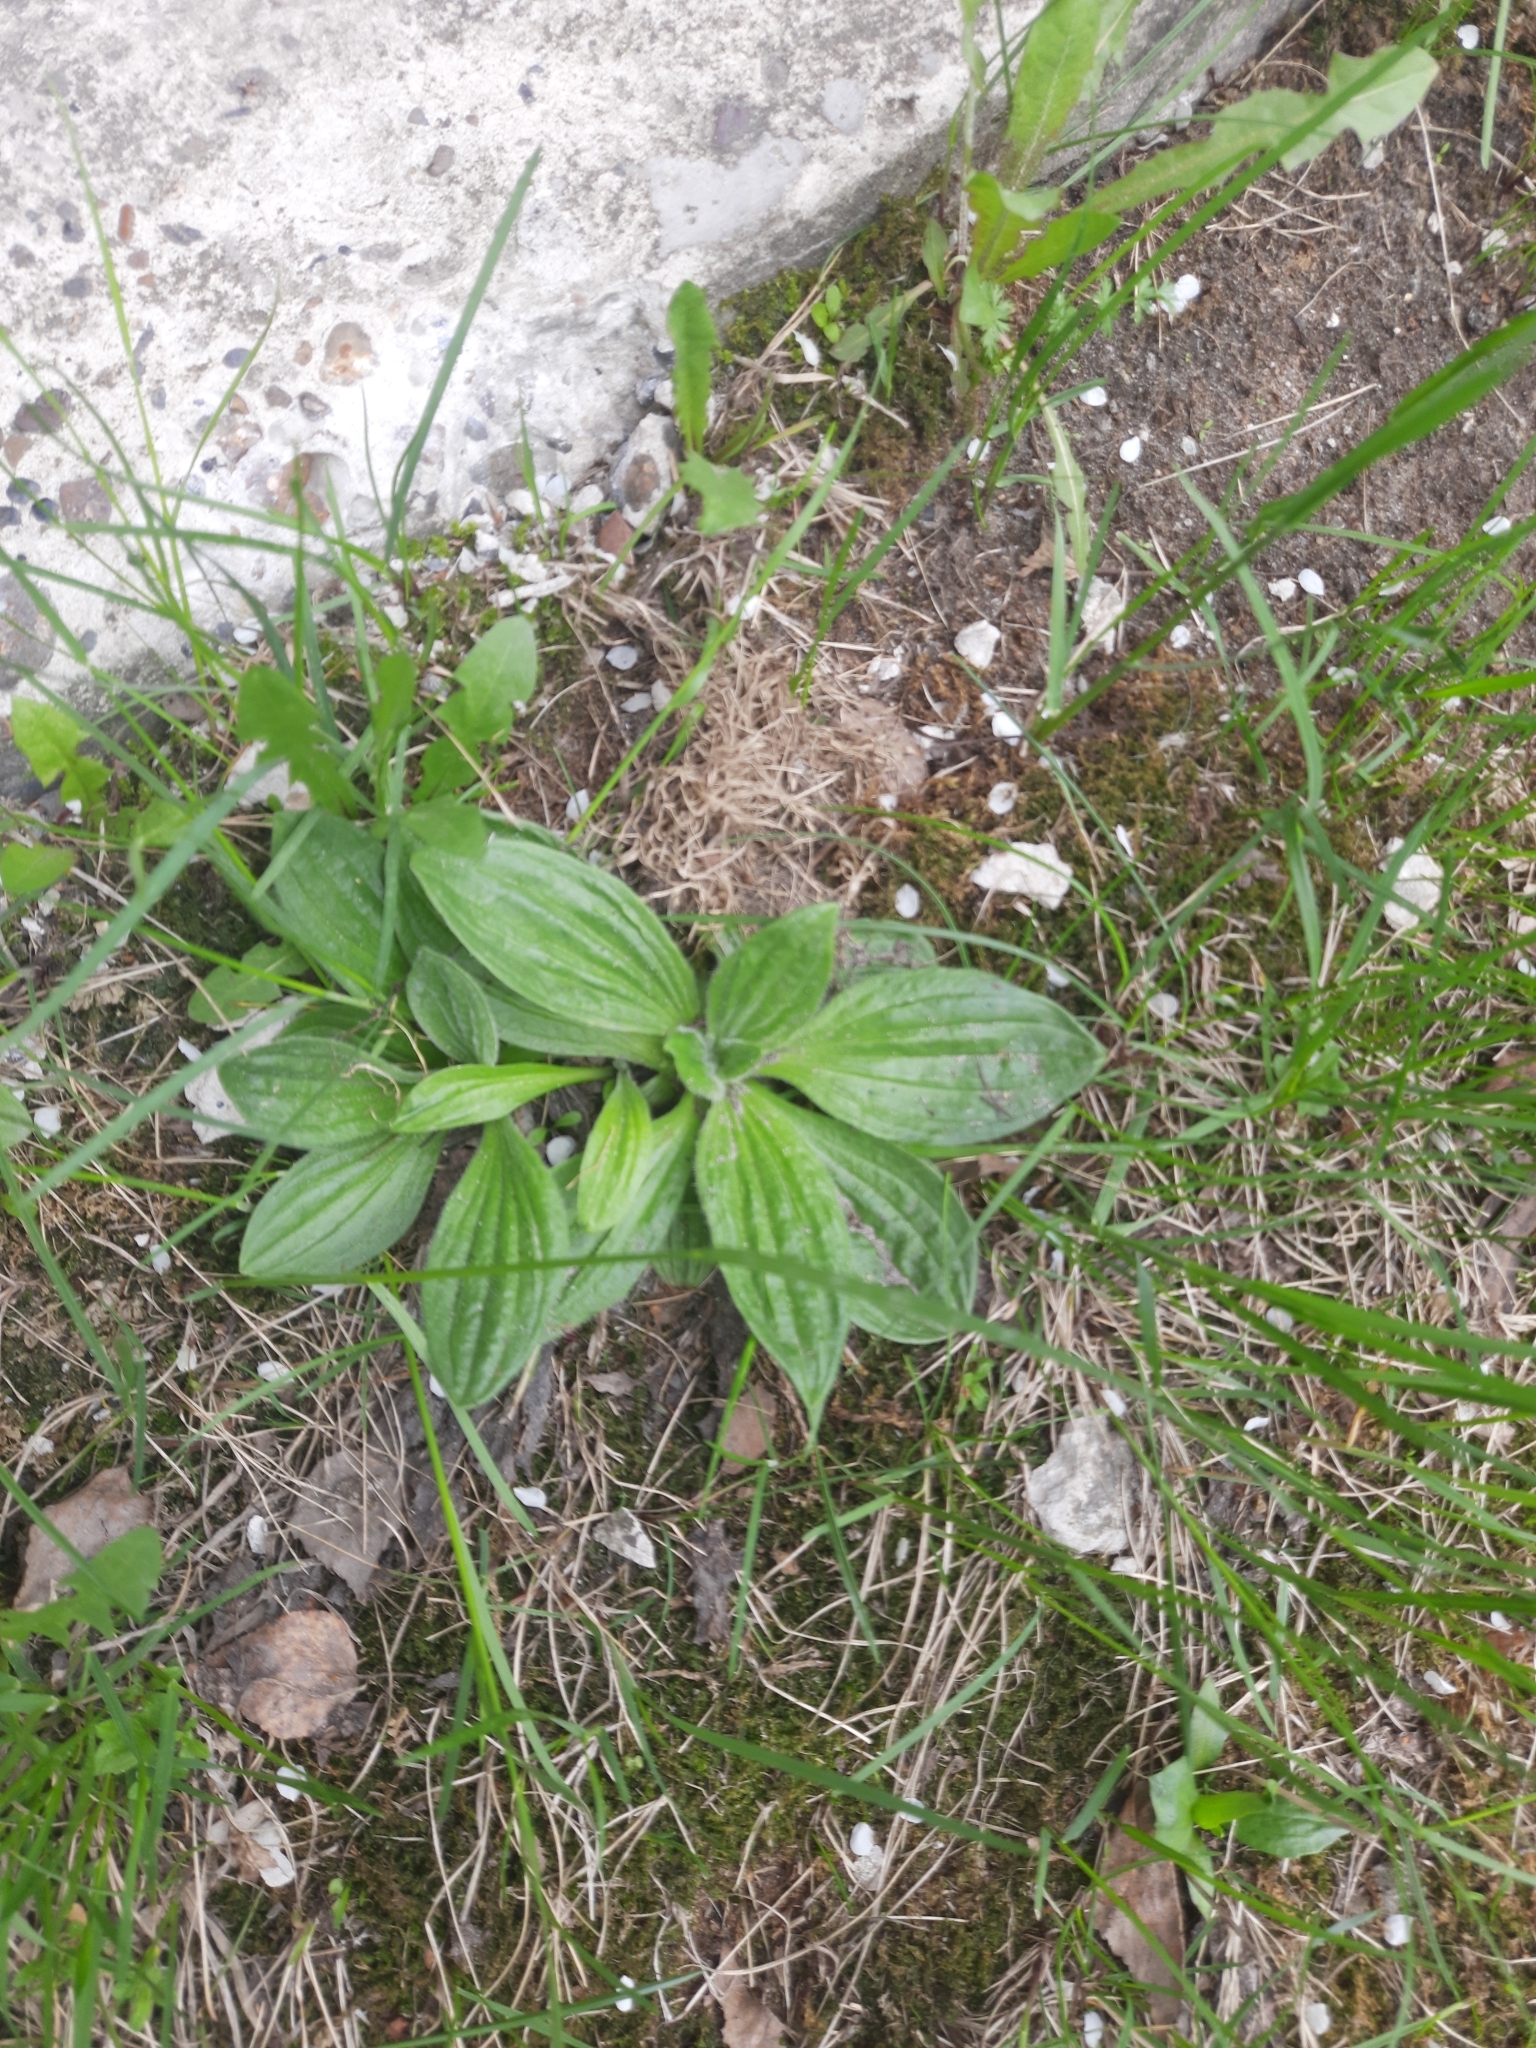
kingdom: Plantae
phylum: Tracheophyta
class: Magnoliopsida
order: Lamiales
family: Plantaginaceae
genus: Plantago
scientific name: Plantago media
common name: Hoary plantain
